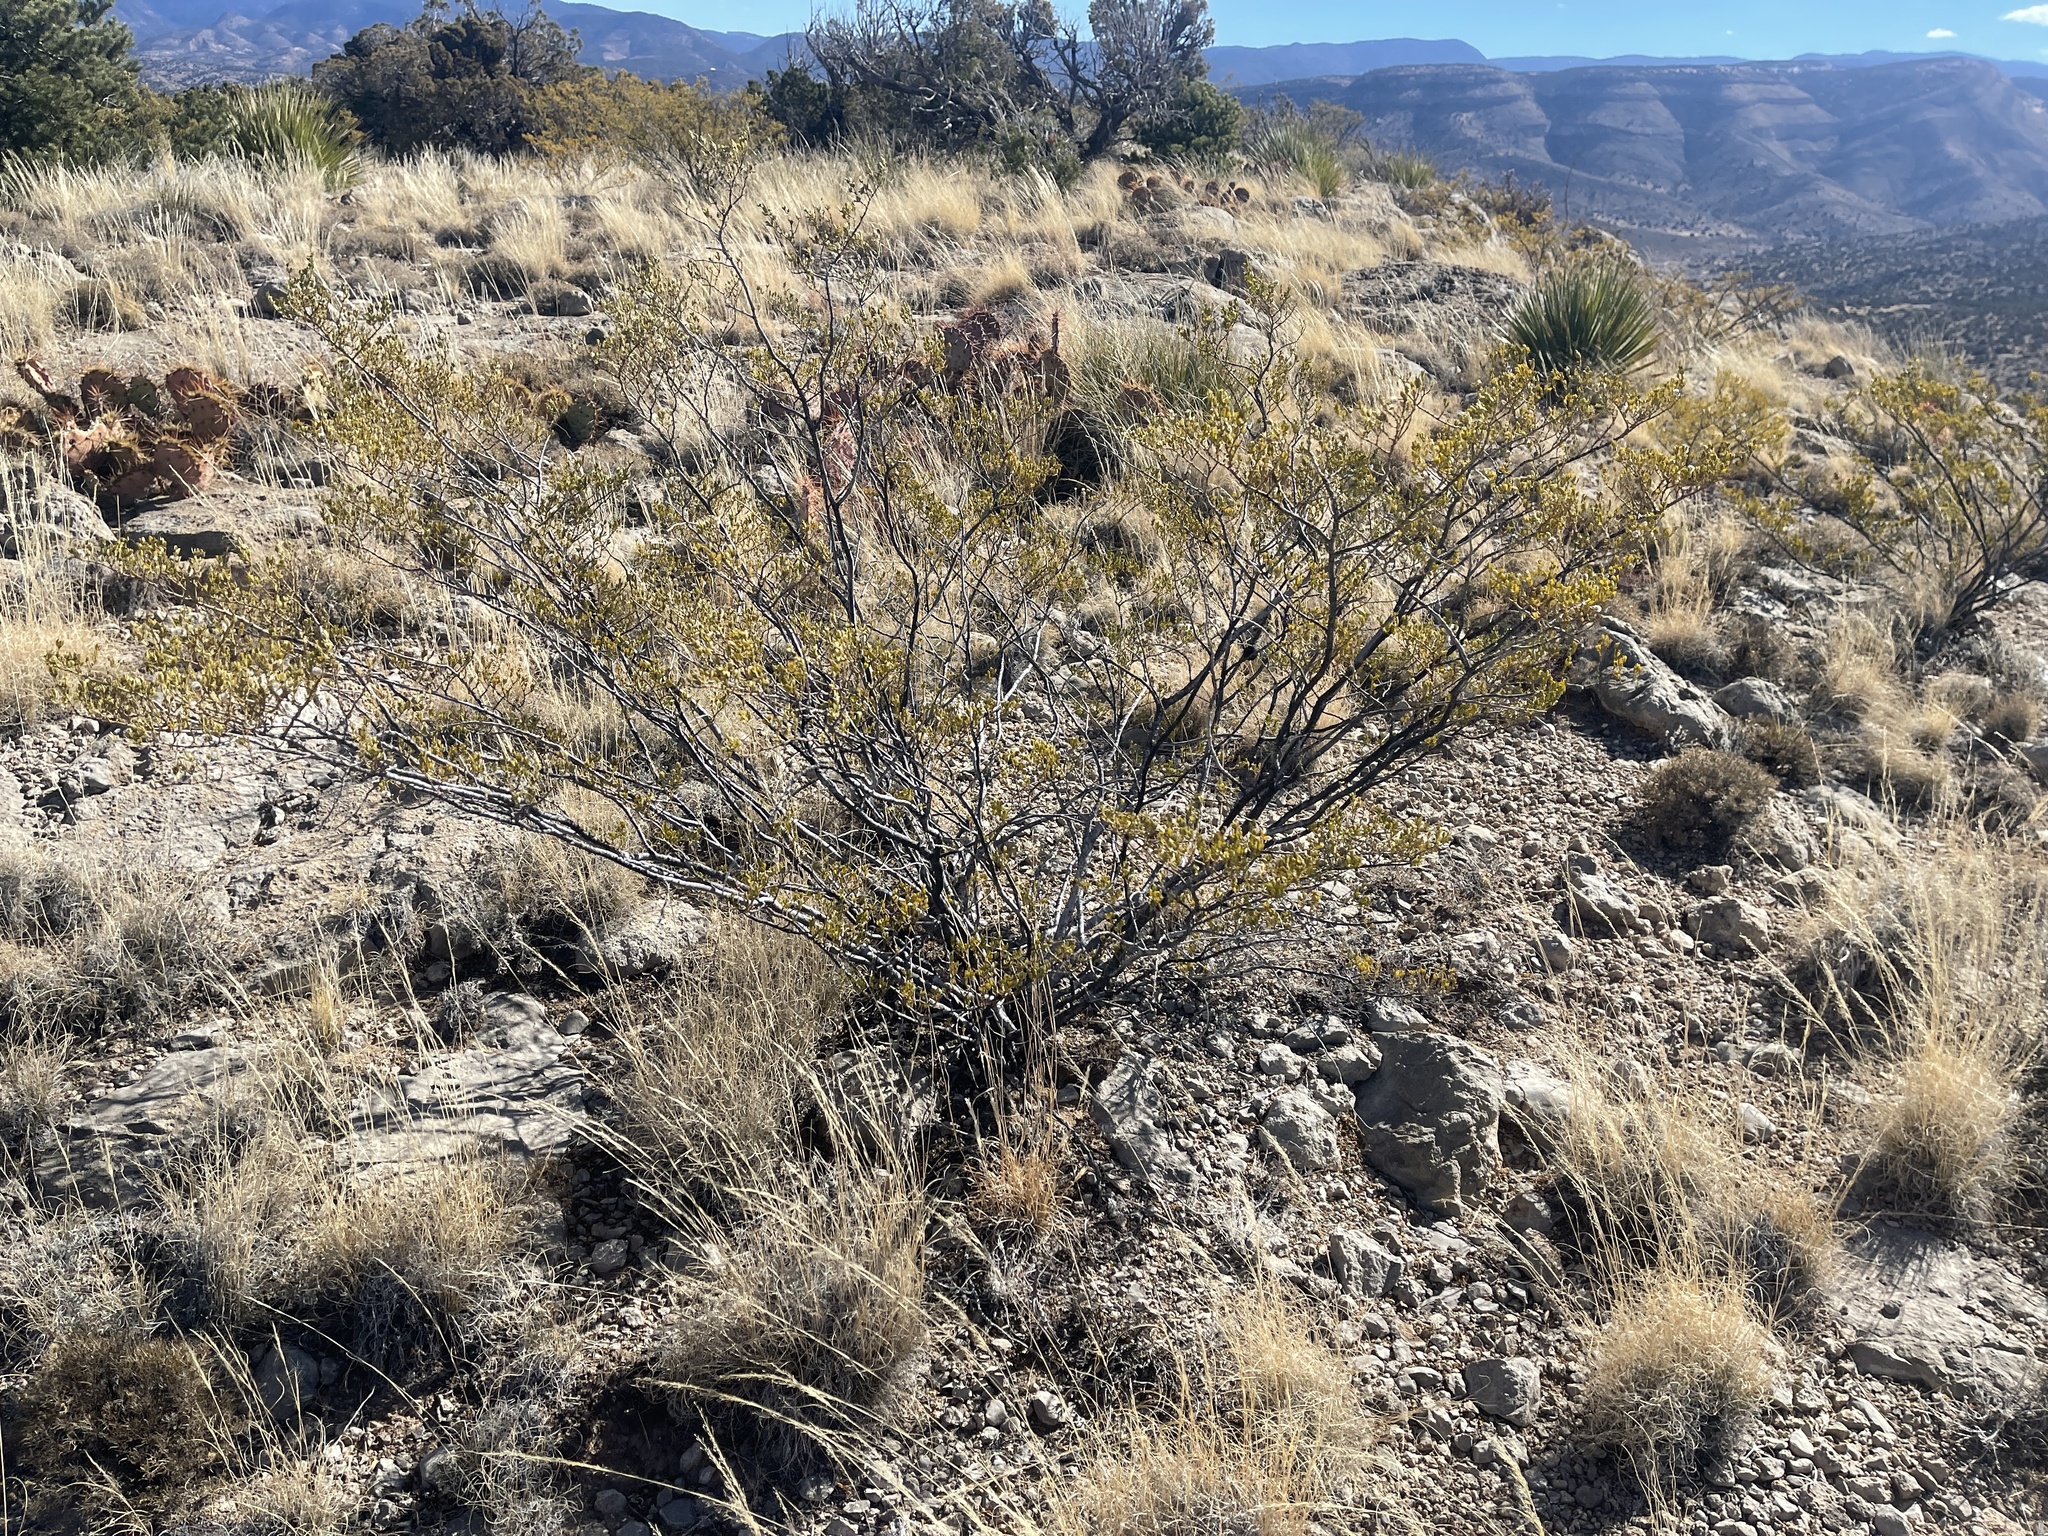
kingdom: Plantae
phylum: Tracheophyta
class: Magnoliopsida
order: Zygophyllales
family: Zygophyllaceae
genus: Larrea
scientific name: Larrea tridentata
